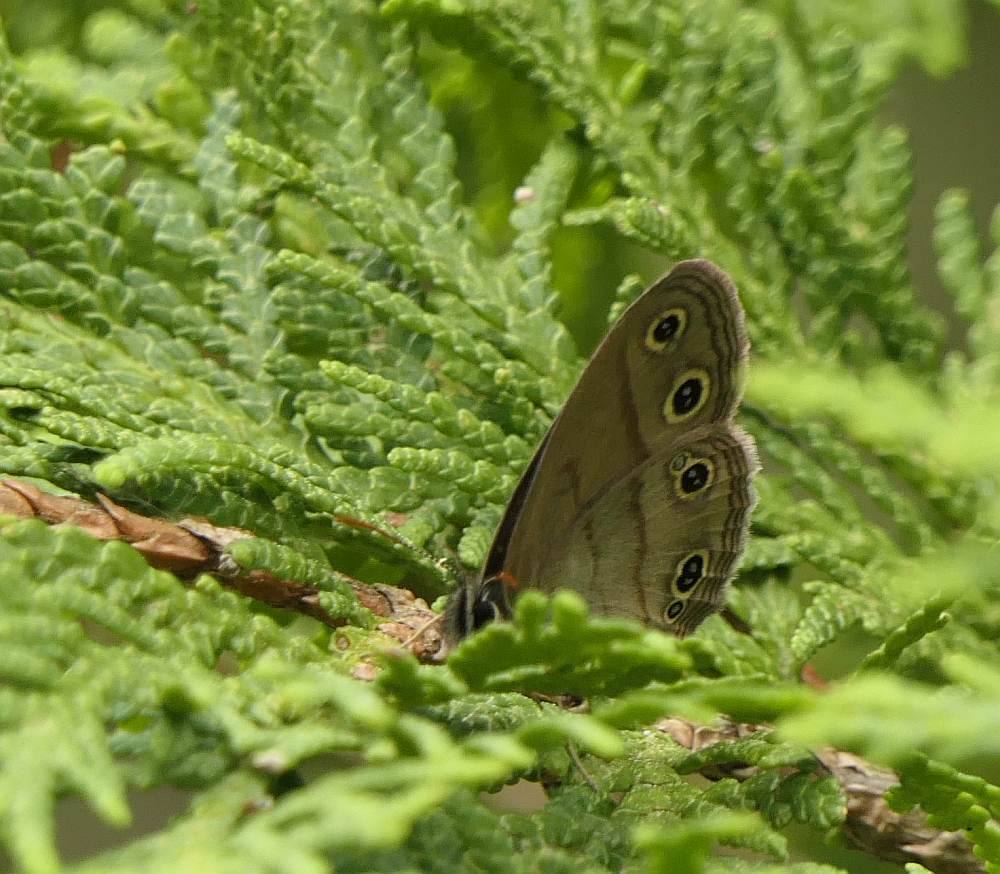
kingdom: Animalia
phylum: Arthropoda
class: Insecta
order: Lepidoptera
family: Nymphalidae
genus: Euptychia
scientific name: Euptychia cymela
